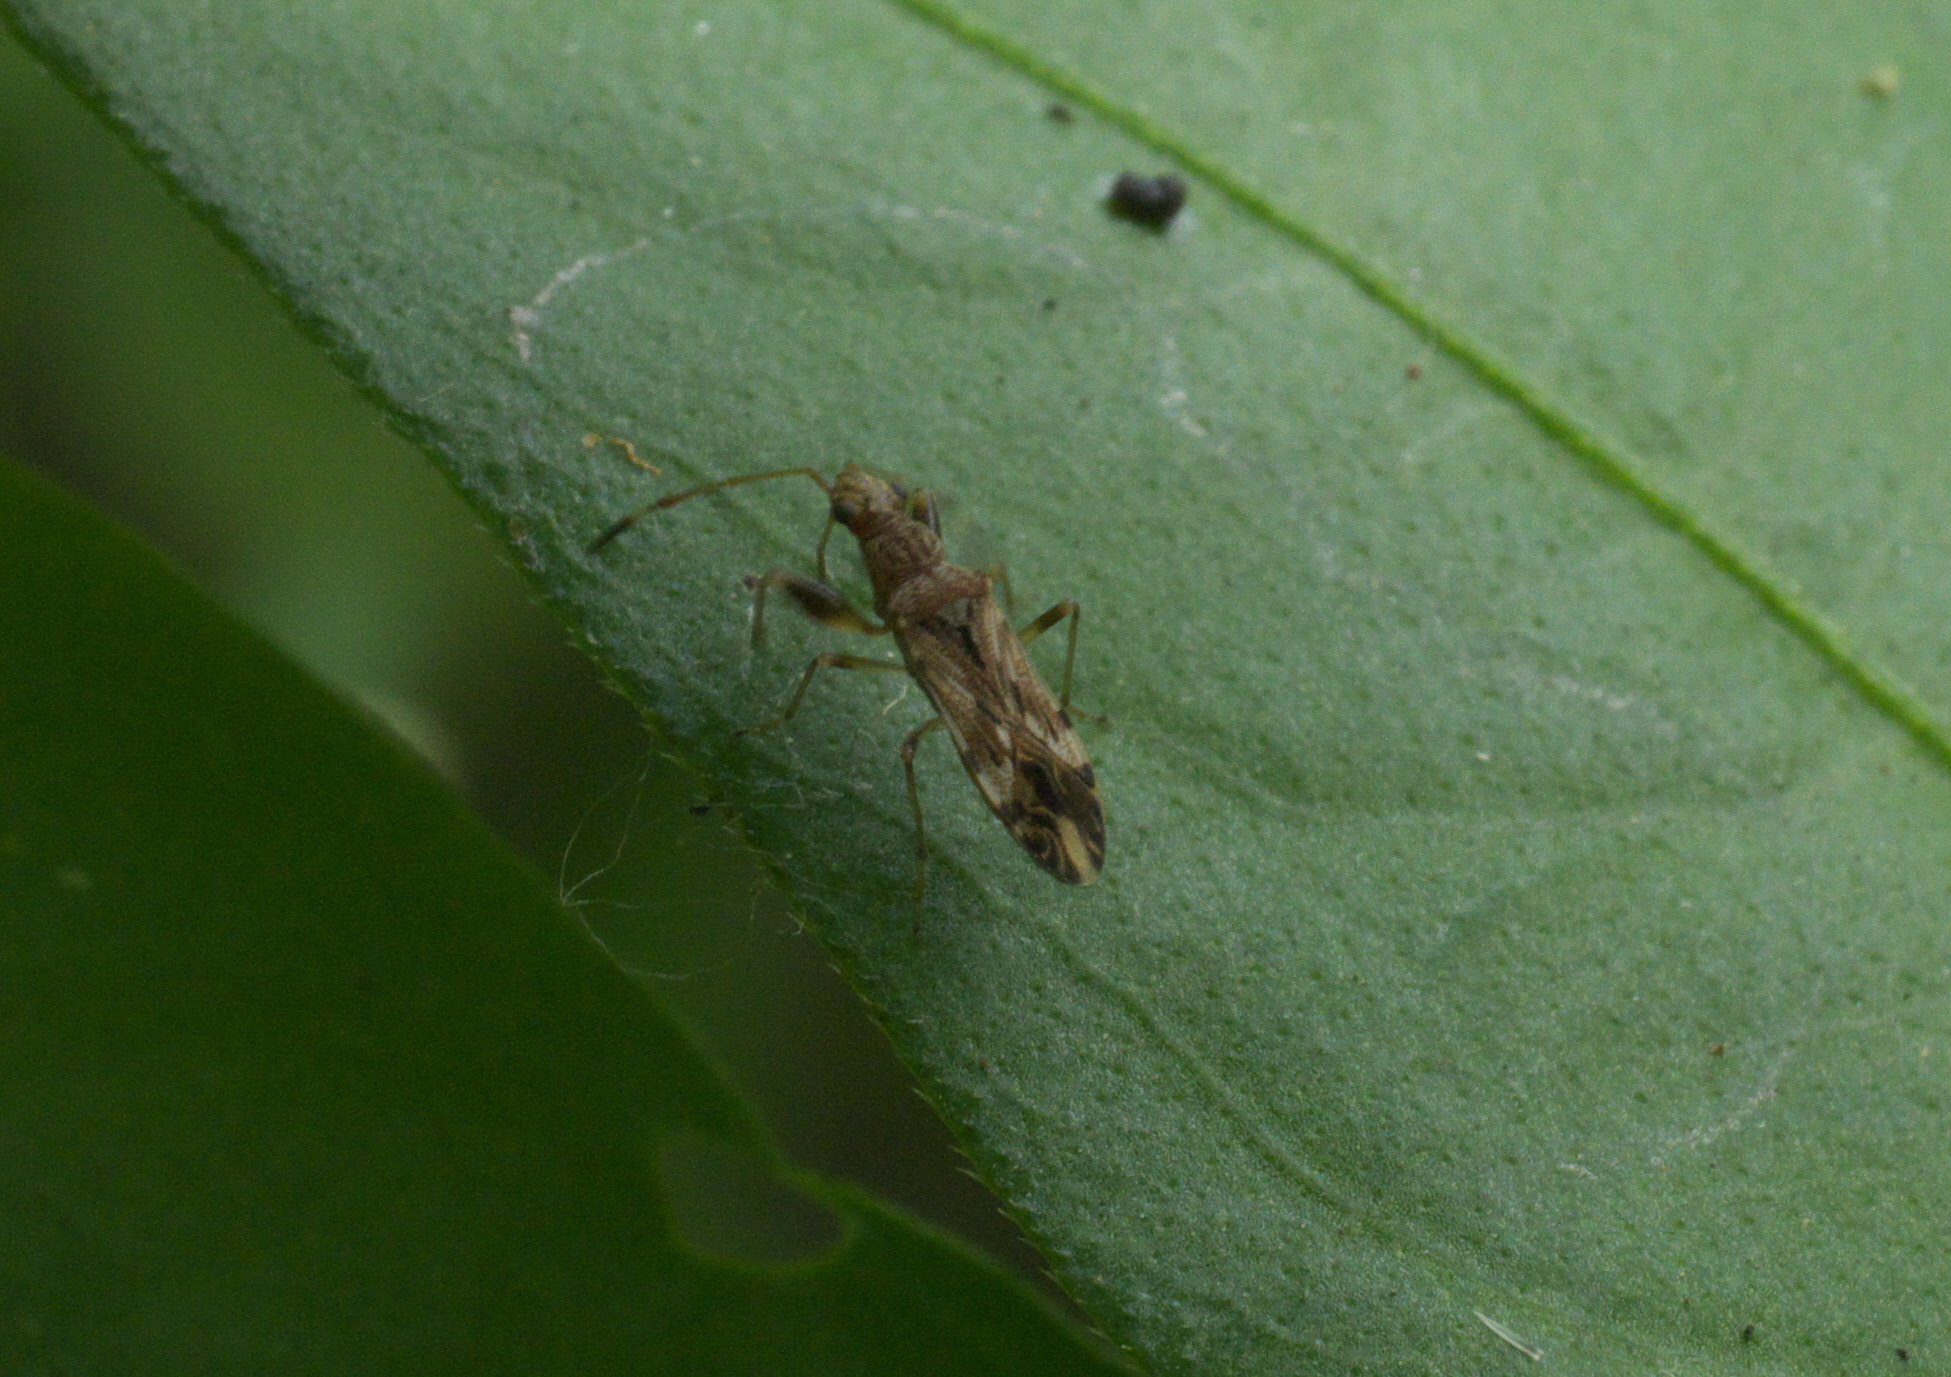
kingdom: Animalia
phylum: Arthropoda
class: Insecta
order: Hemiptera
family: Rhyparochromidae
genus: Neopamera
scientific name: Neopamera albocincta
